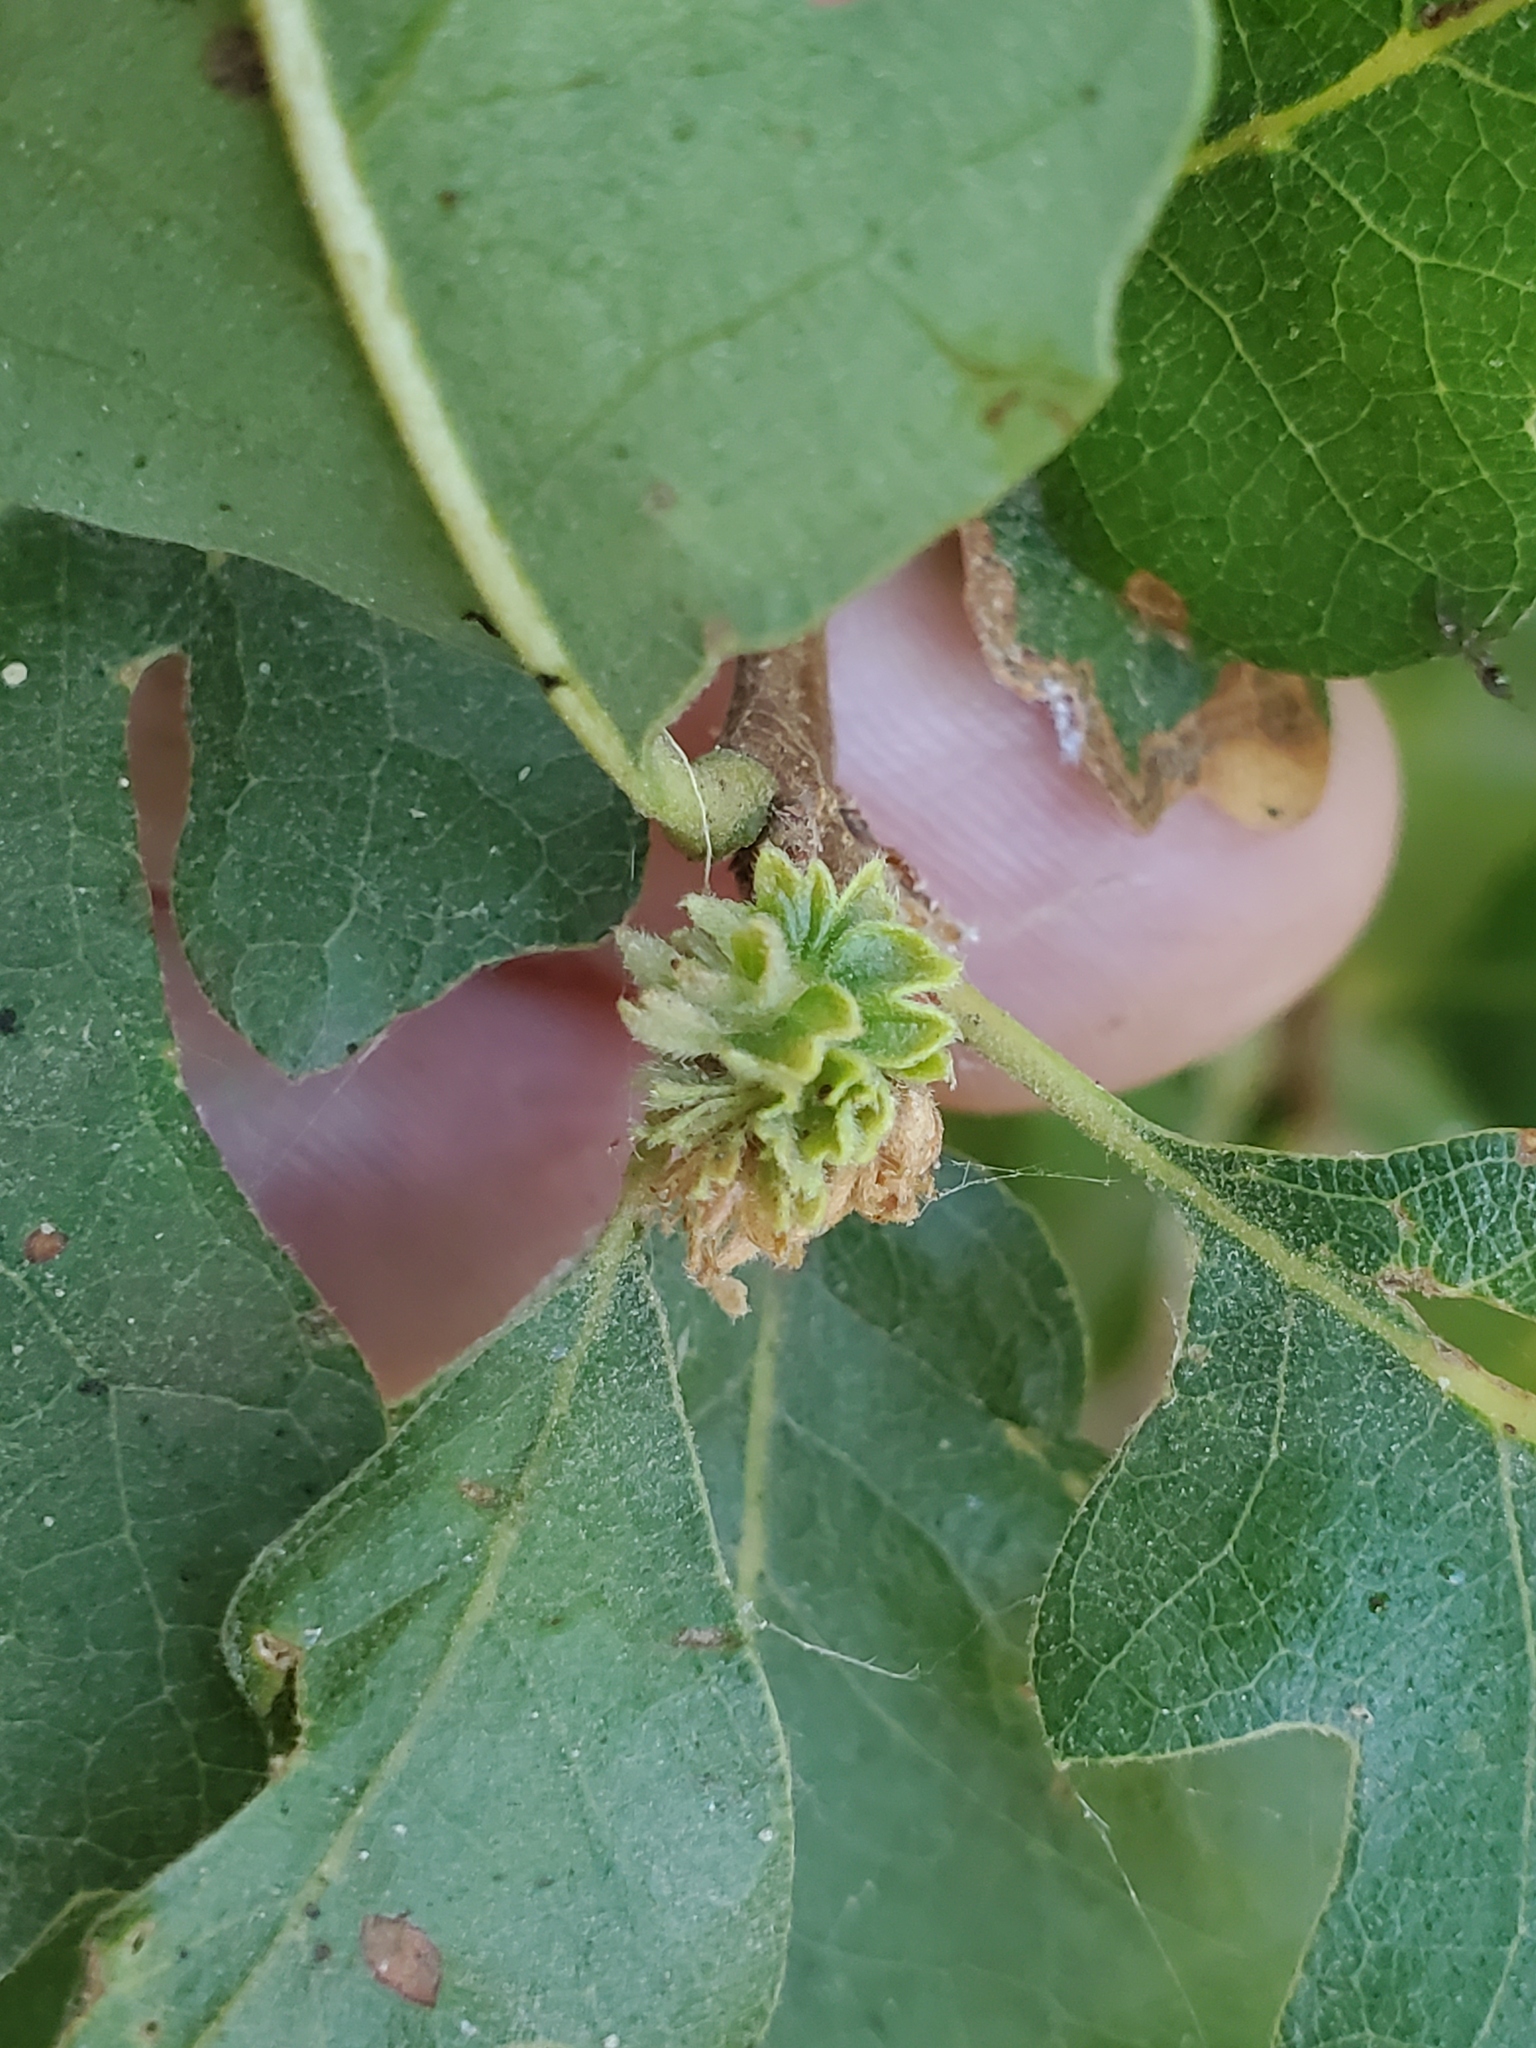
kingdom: Animalia
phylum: Arthropoda
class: Insecta
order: Hymenoptera
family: Cynipidae
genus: Andricus
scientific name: Andricus
